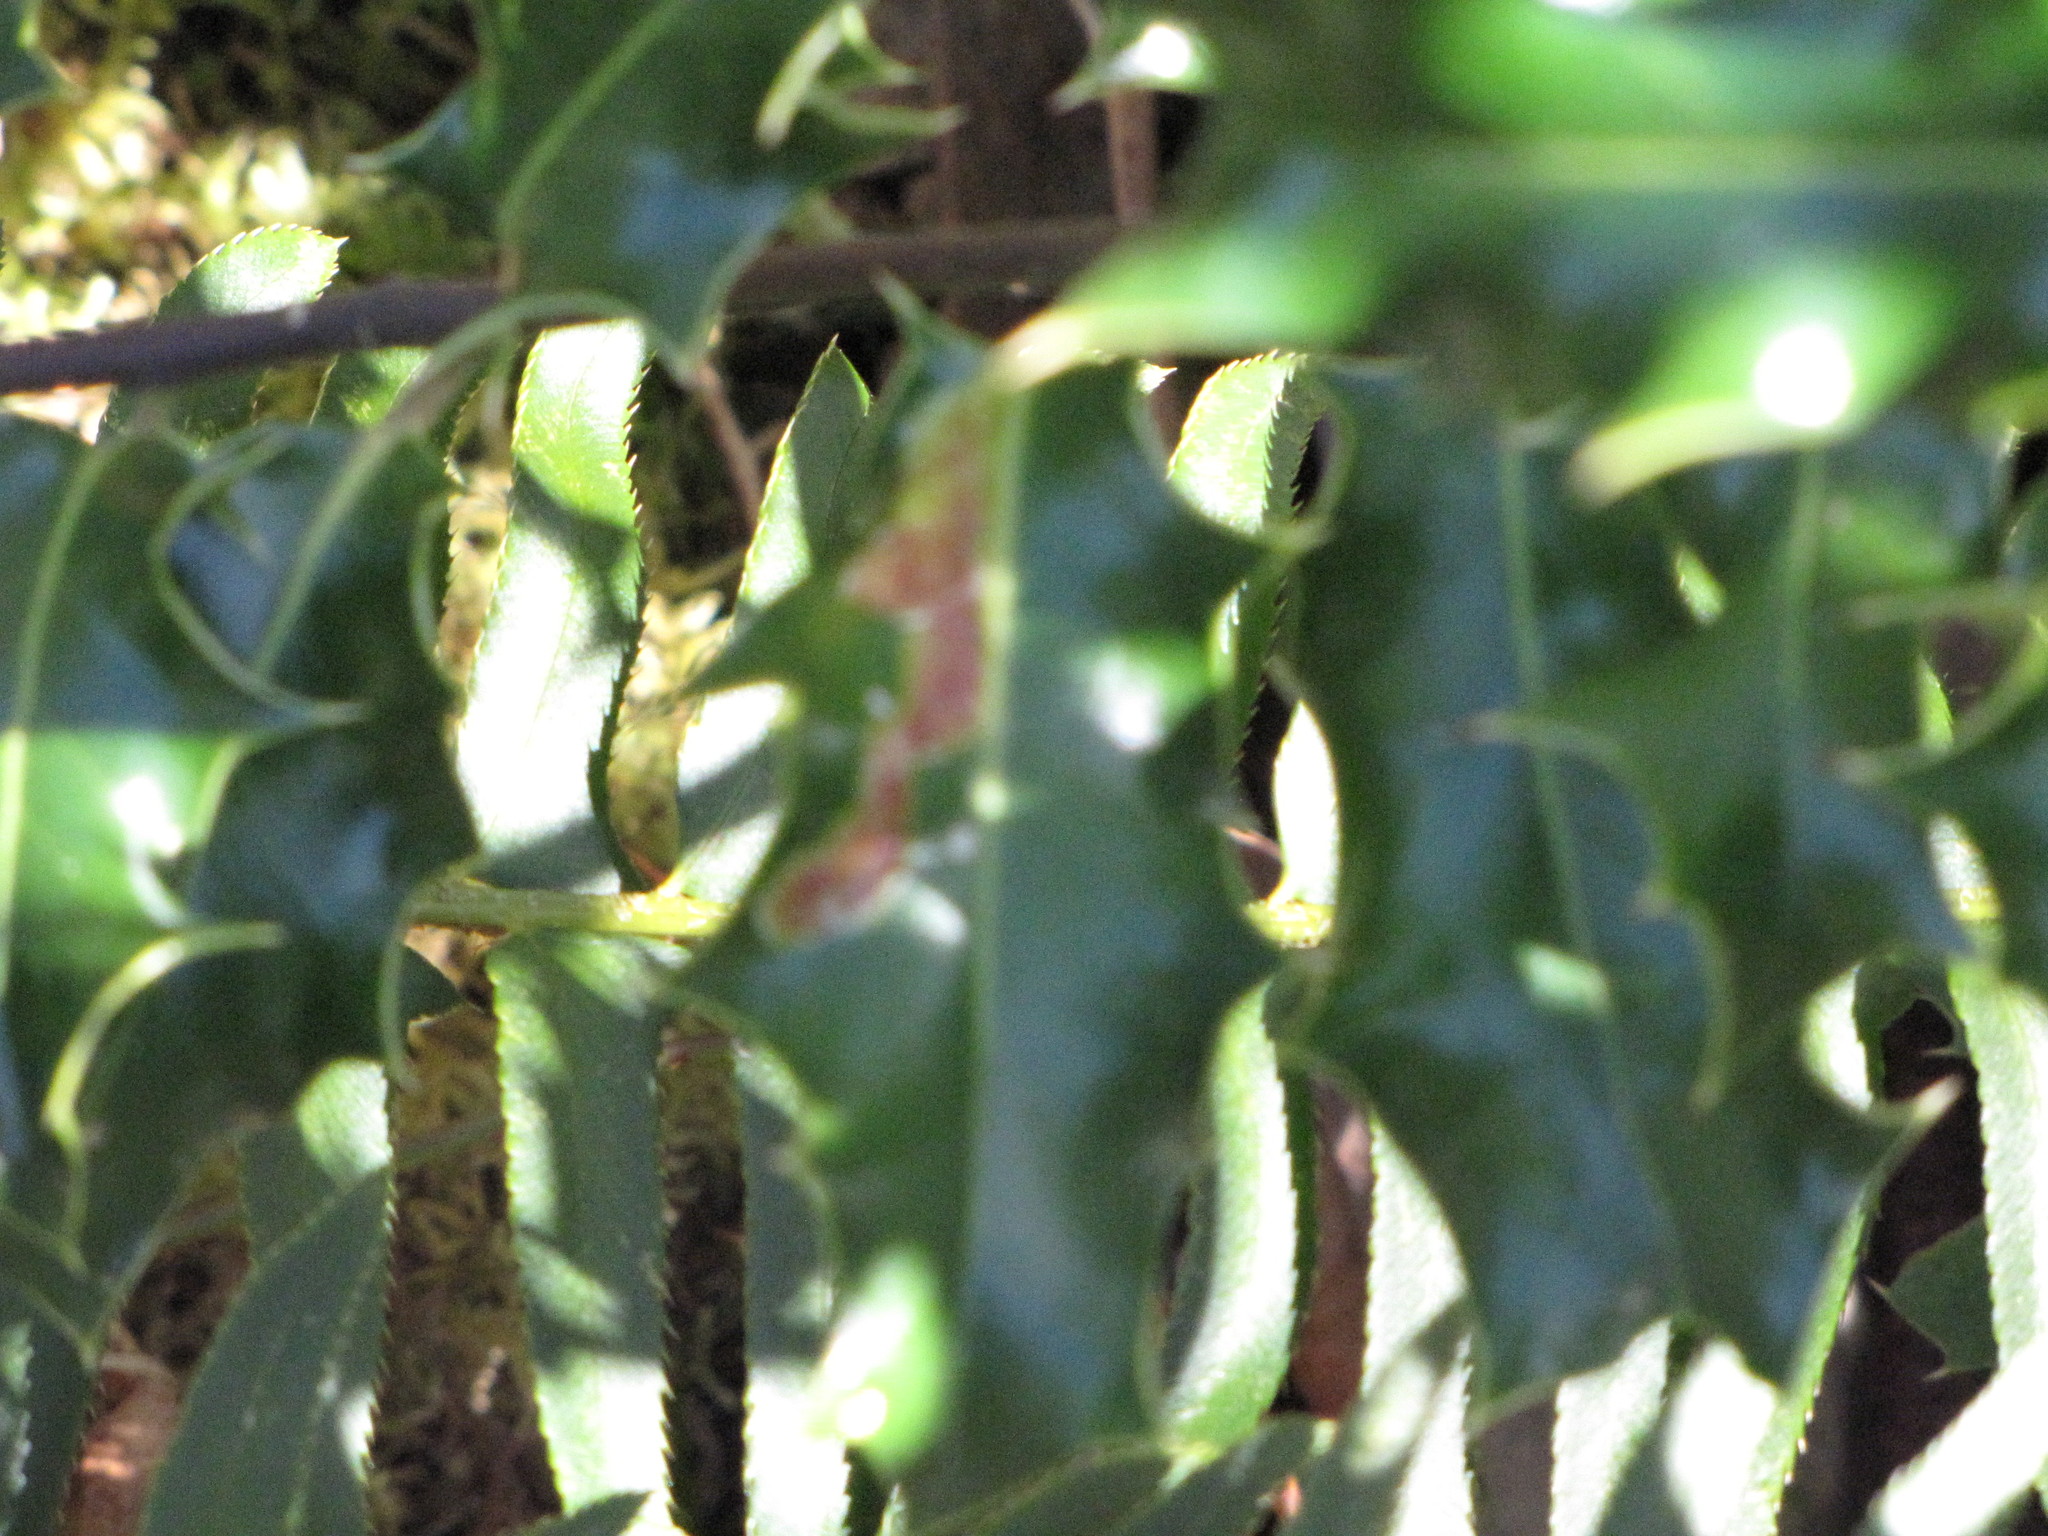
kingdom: Animalia
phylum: Arthropoda
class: Insecta
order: Diptera
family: Agromyzidae
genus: Phytomyza
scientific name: Phytomyza ilicis
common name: Holly leafminer
